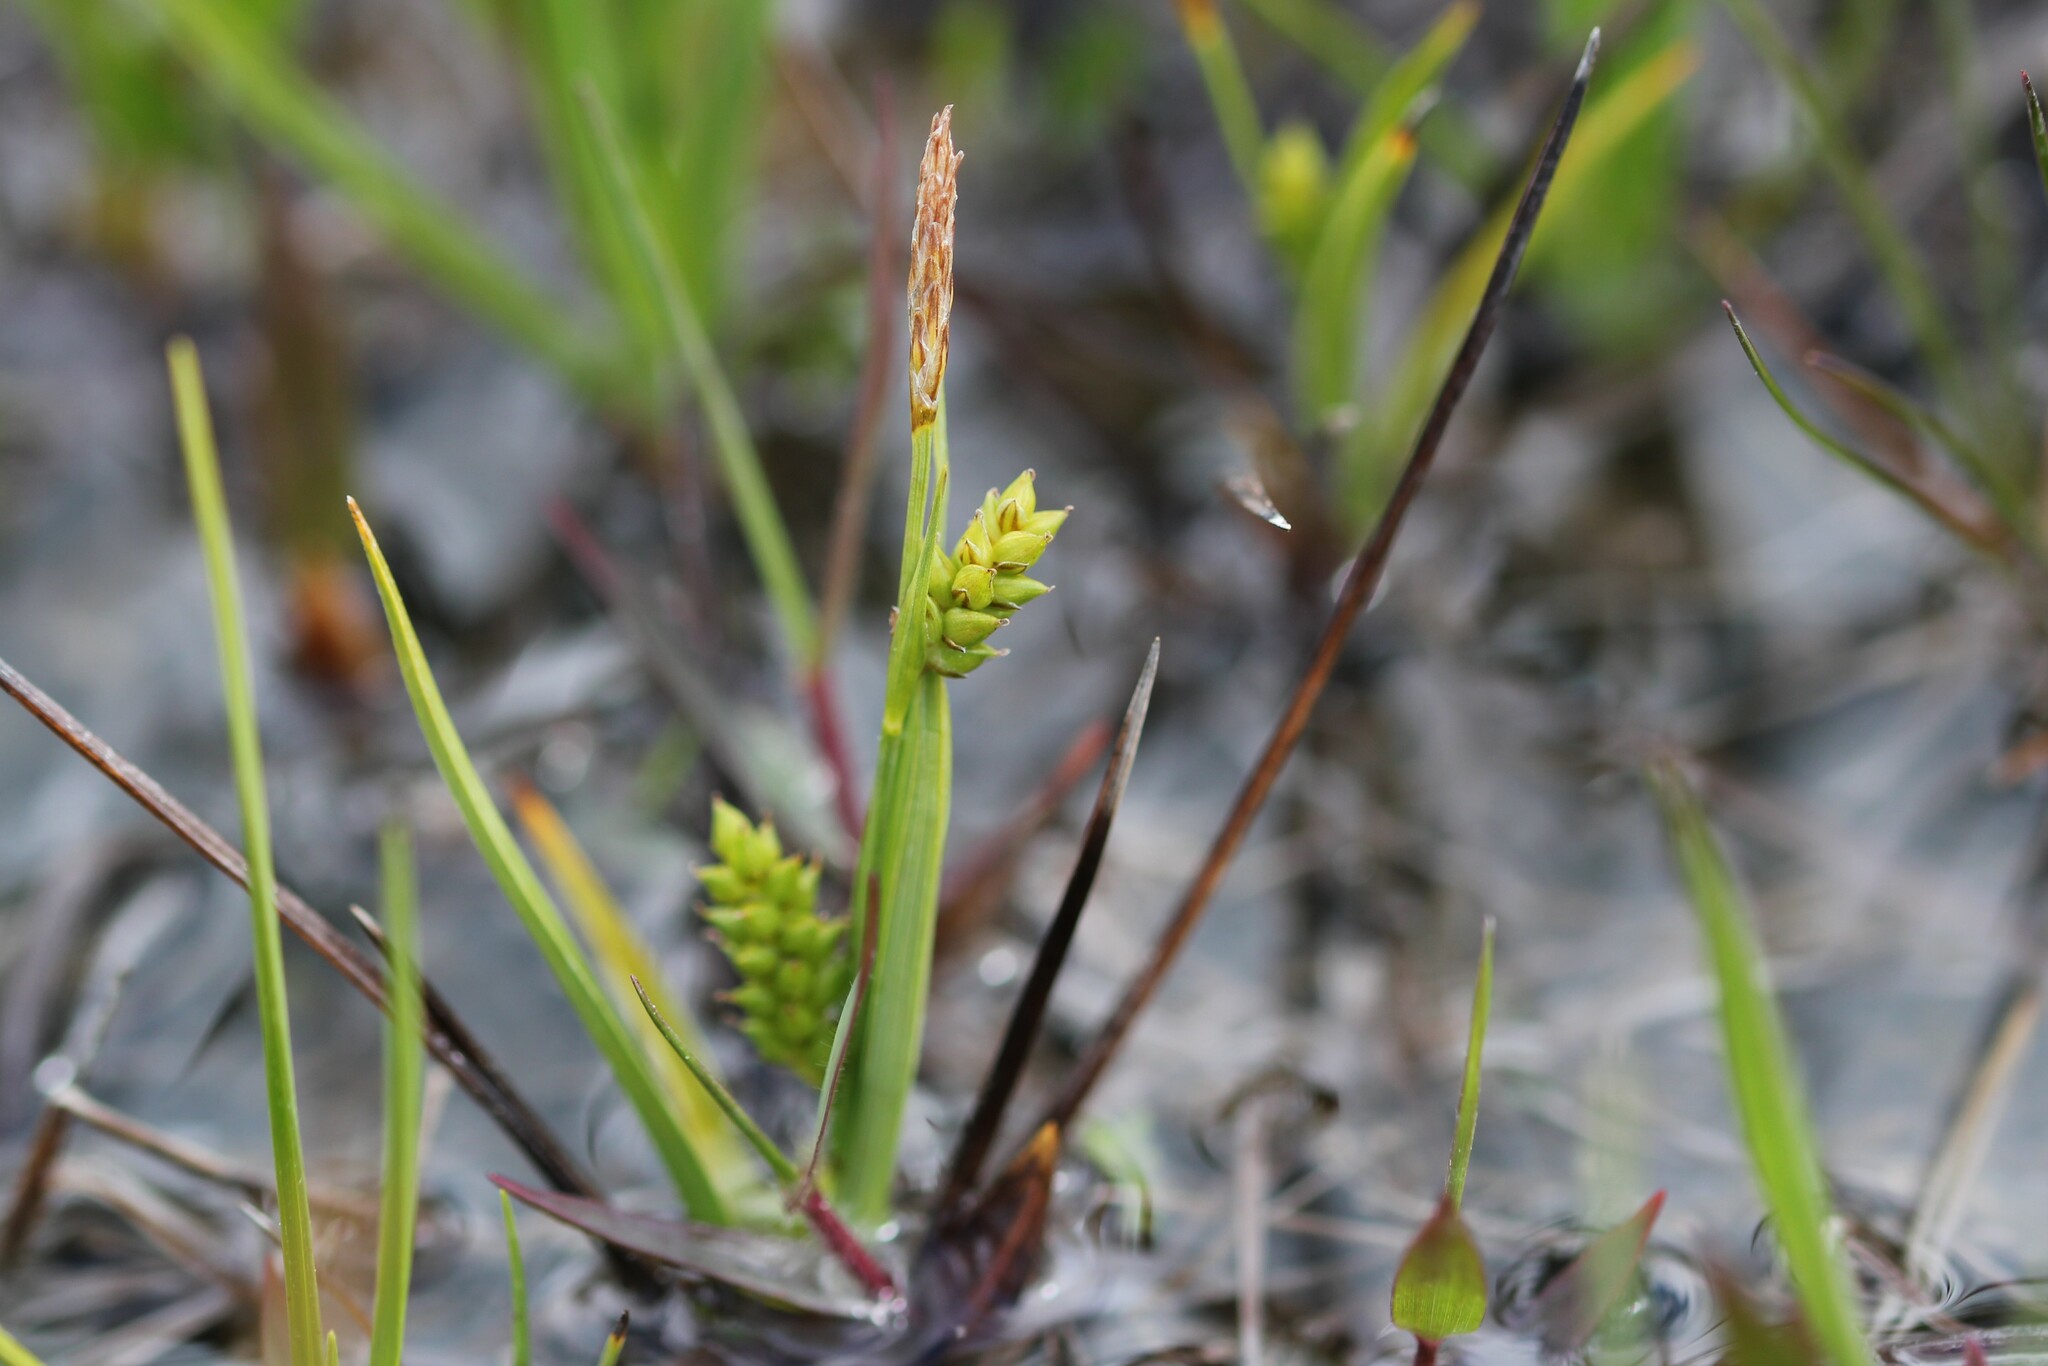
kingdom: Plantae
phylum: Tracheophyta
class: Liliopsida
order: Poales
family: Cyperaceae
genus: Carex
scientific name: Carex crawei
